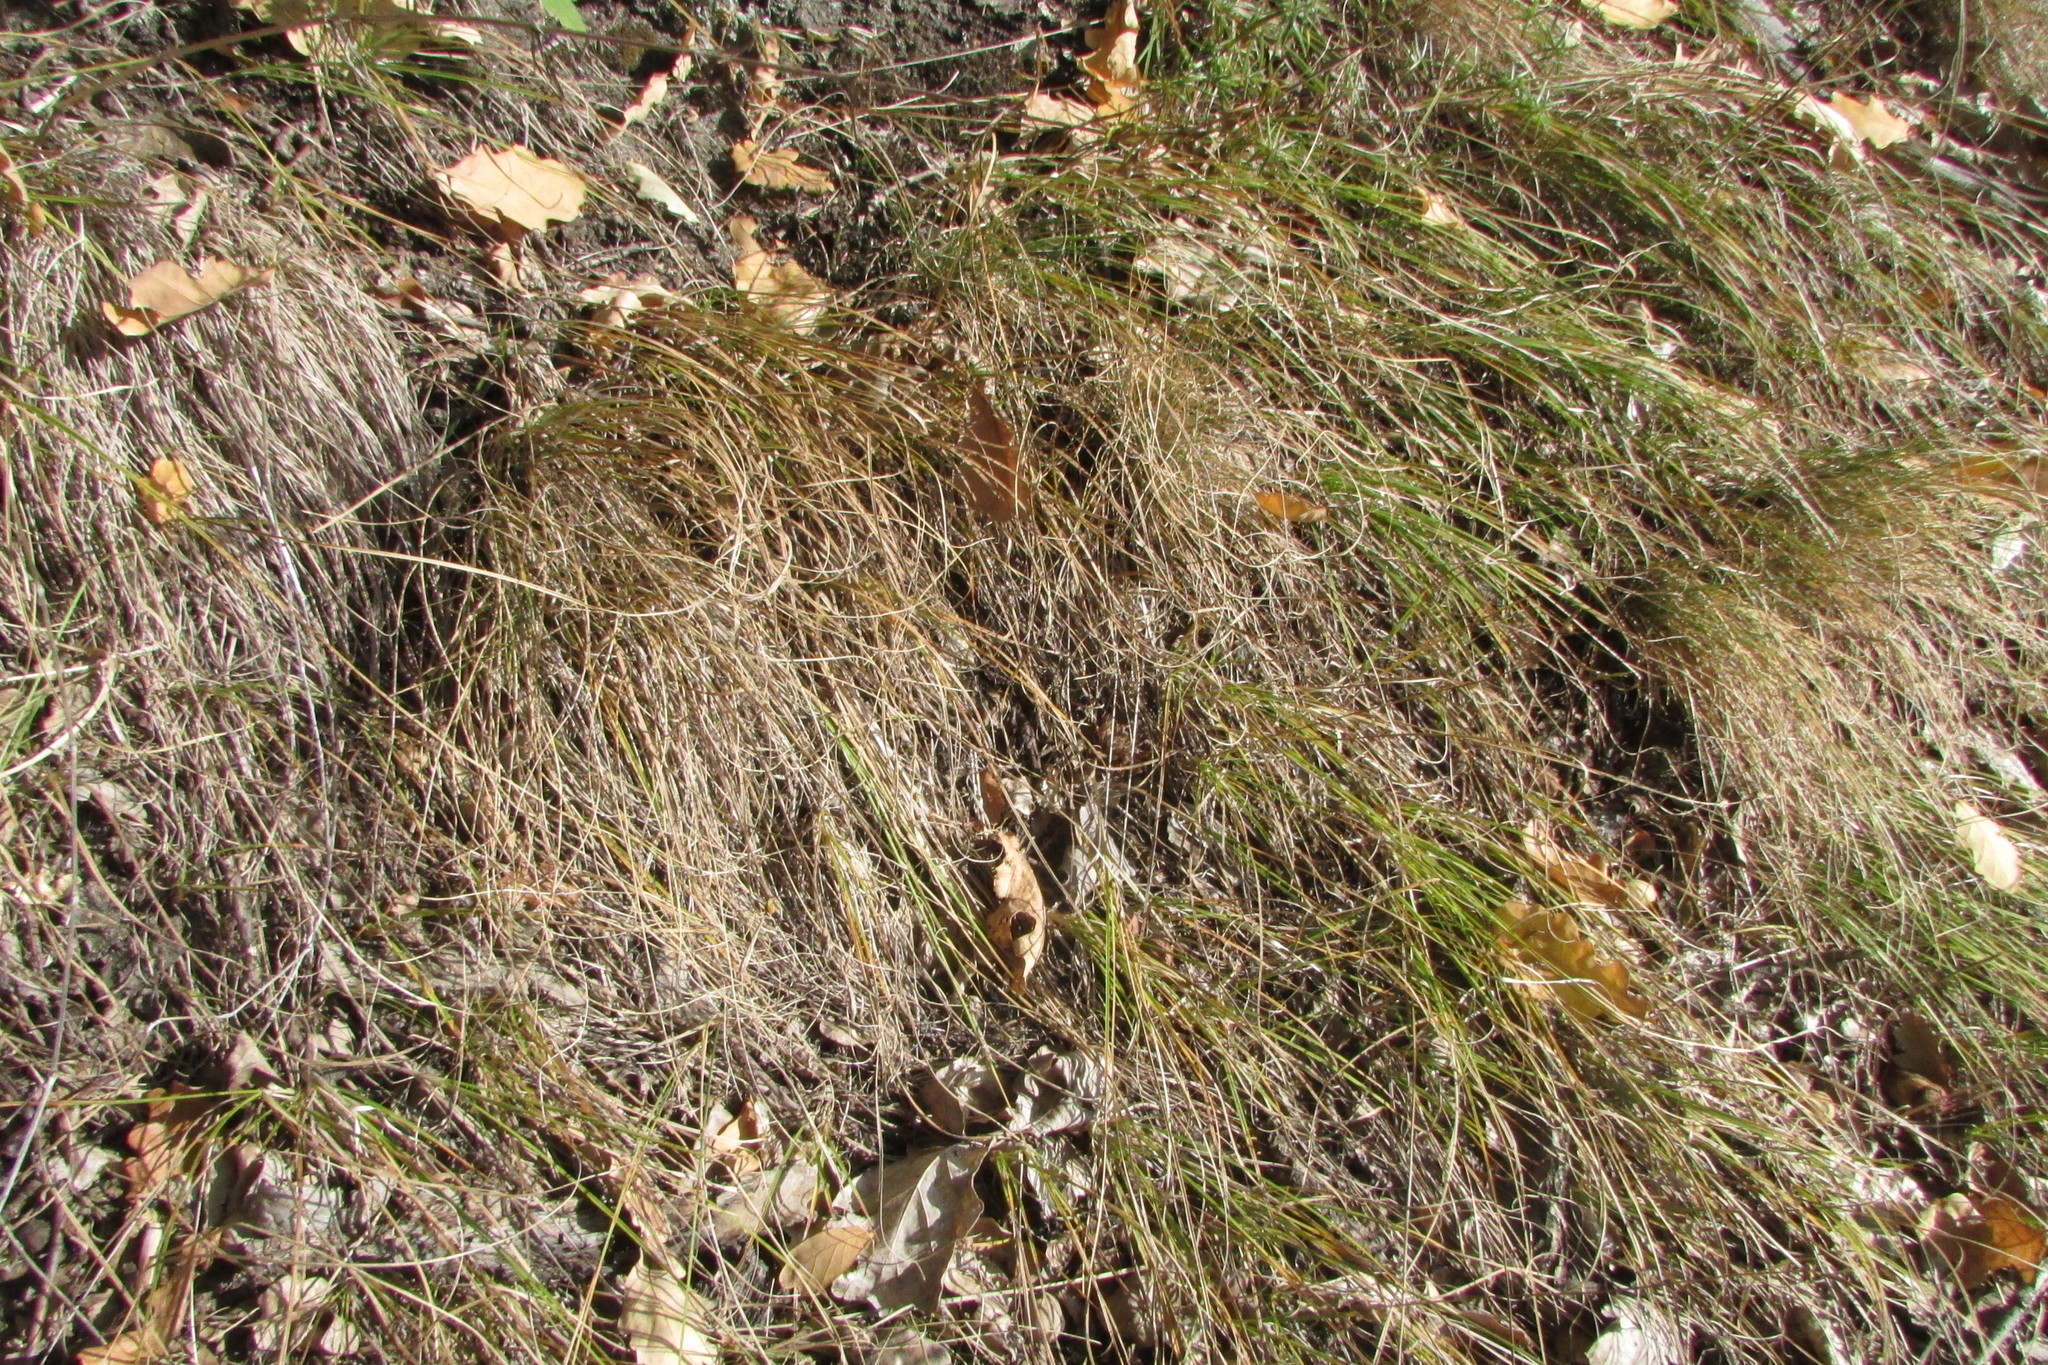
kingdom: Plantae
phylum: Tracheophyta
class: Liliopsida
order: Poales
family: Cyperaceae
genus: Carex
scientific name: Carex supina
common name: Lying-back sedge
